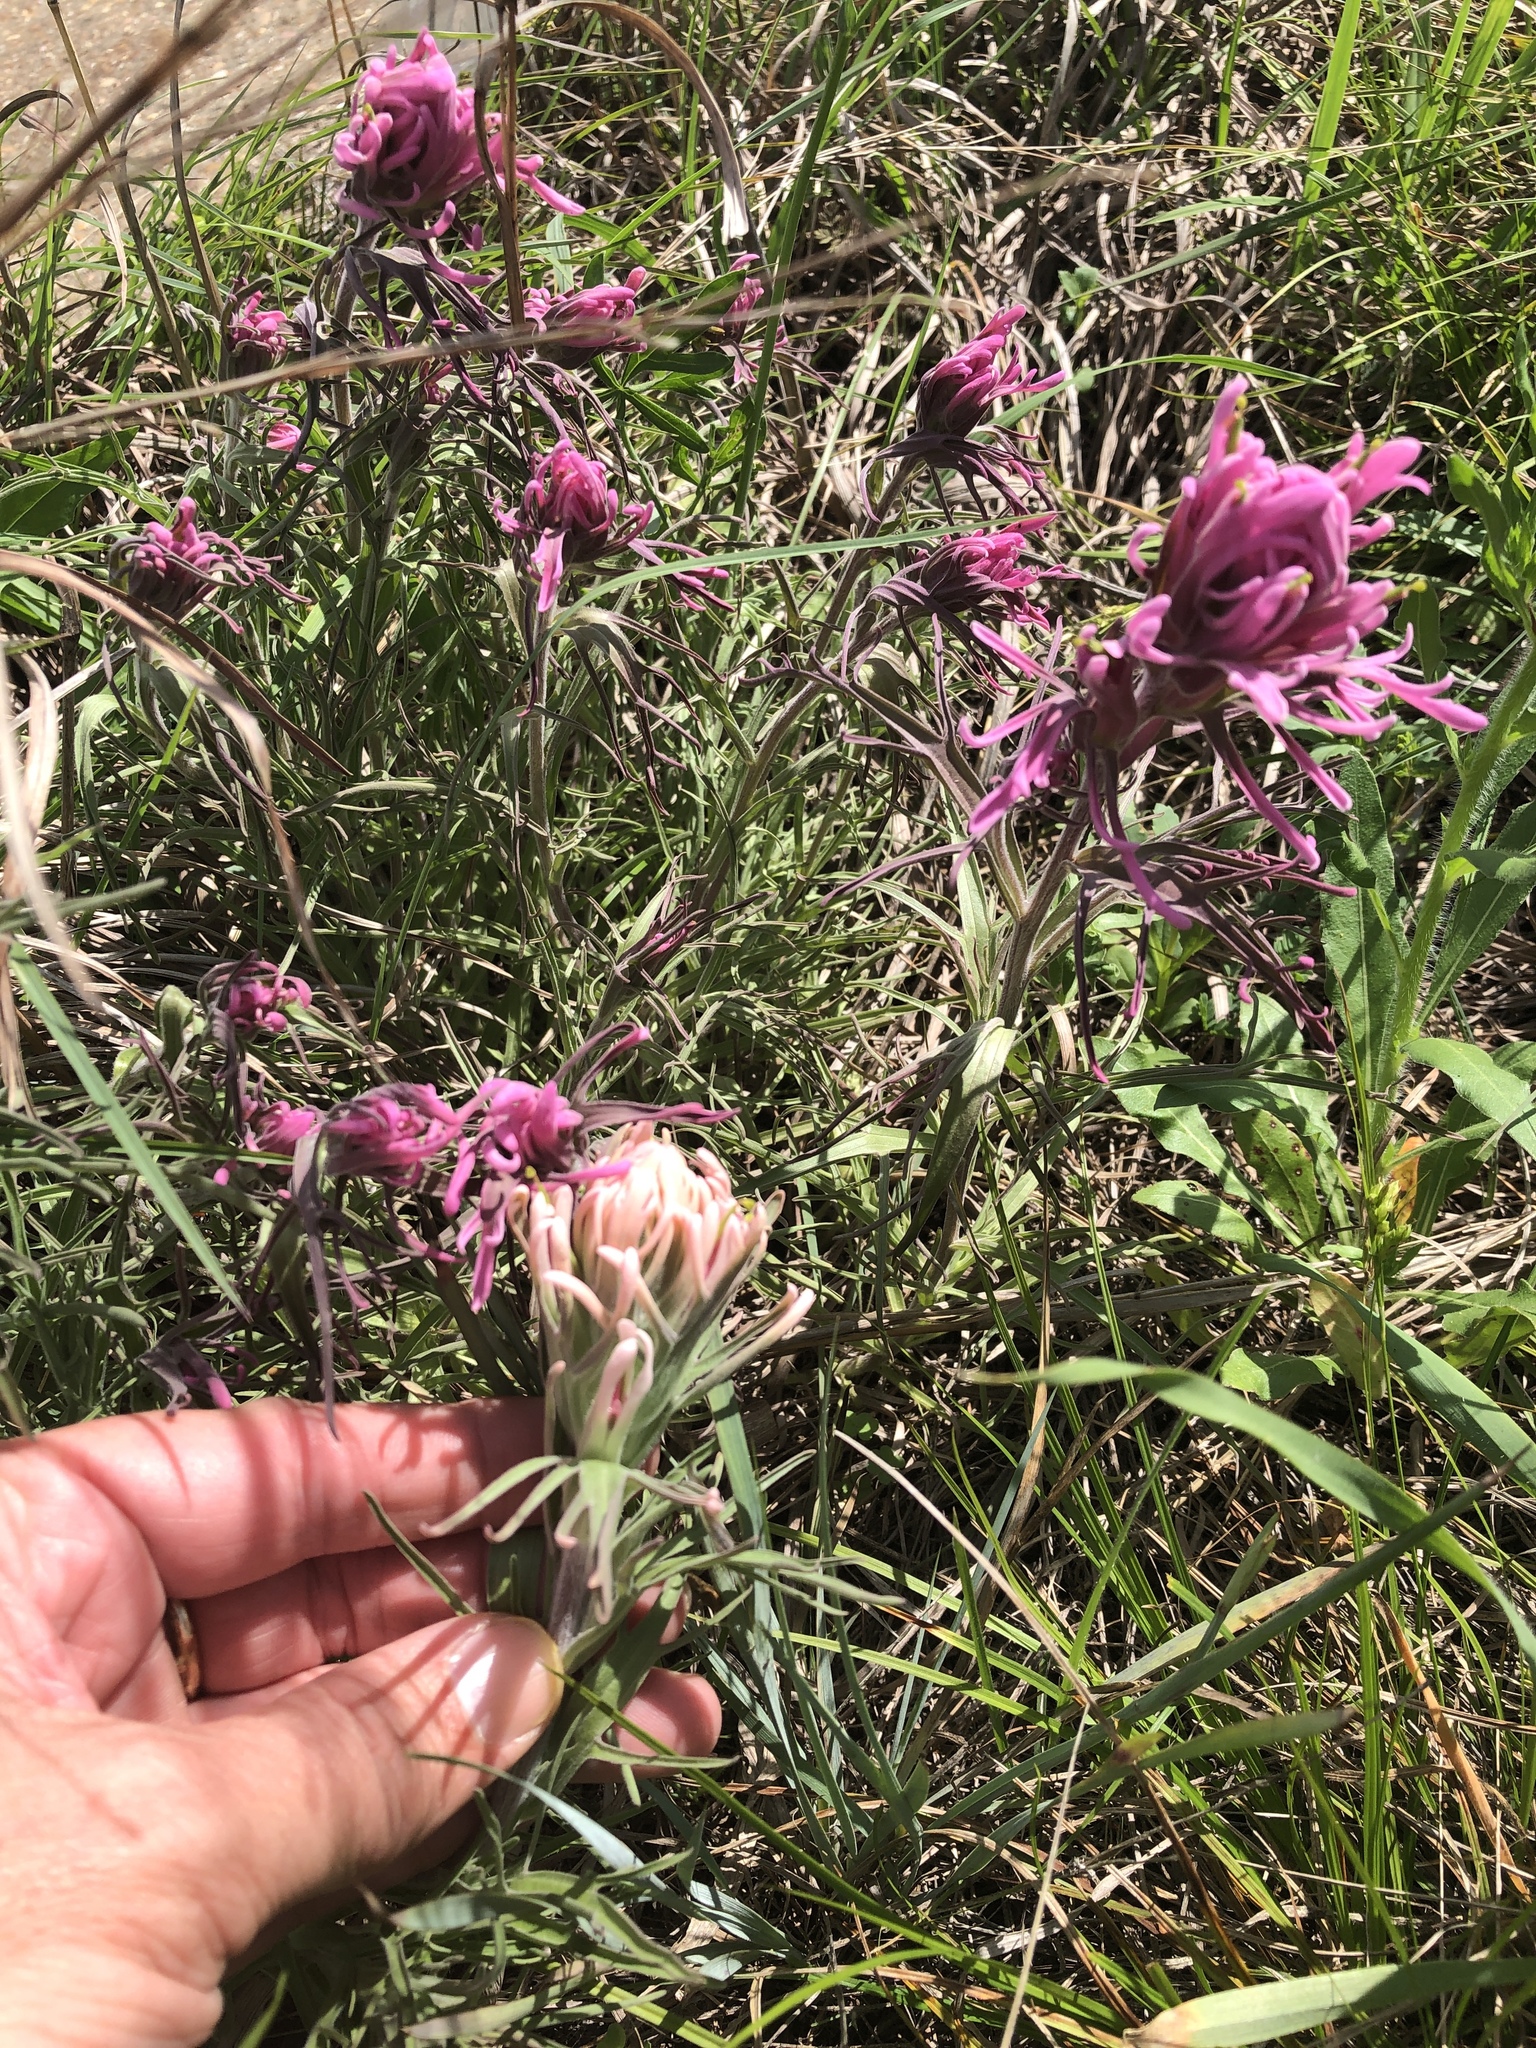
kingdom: Plantae
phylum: Tracheophyta
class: Magnoliopsida
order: Lamiales
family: Orobanchaceae
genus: Castilleja
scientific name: Castilleja purpurea
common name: Plains paintbrush
